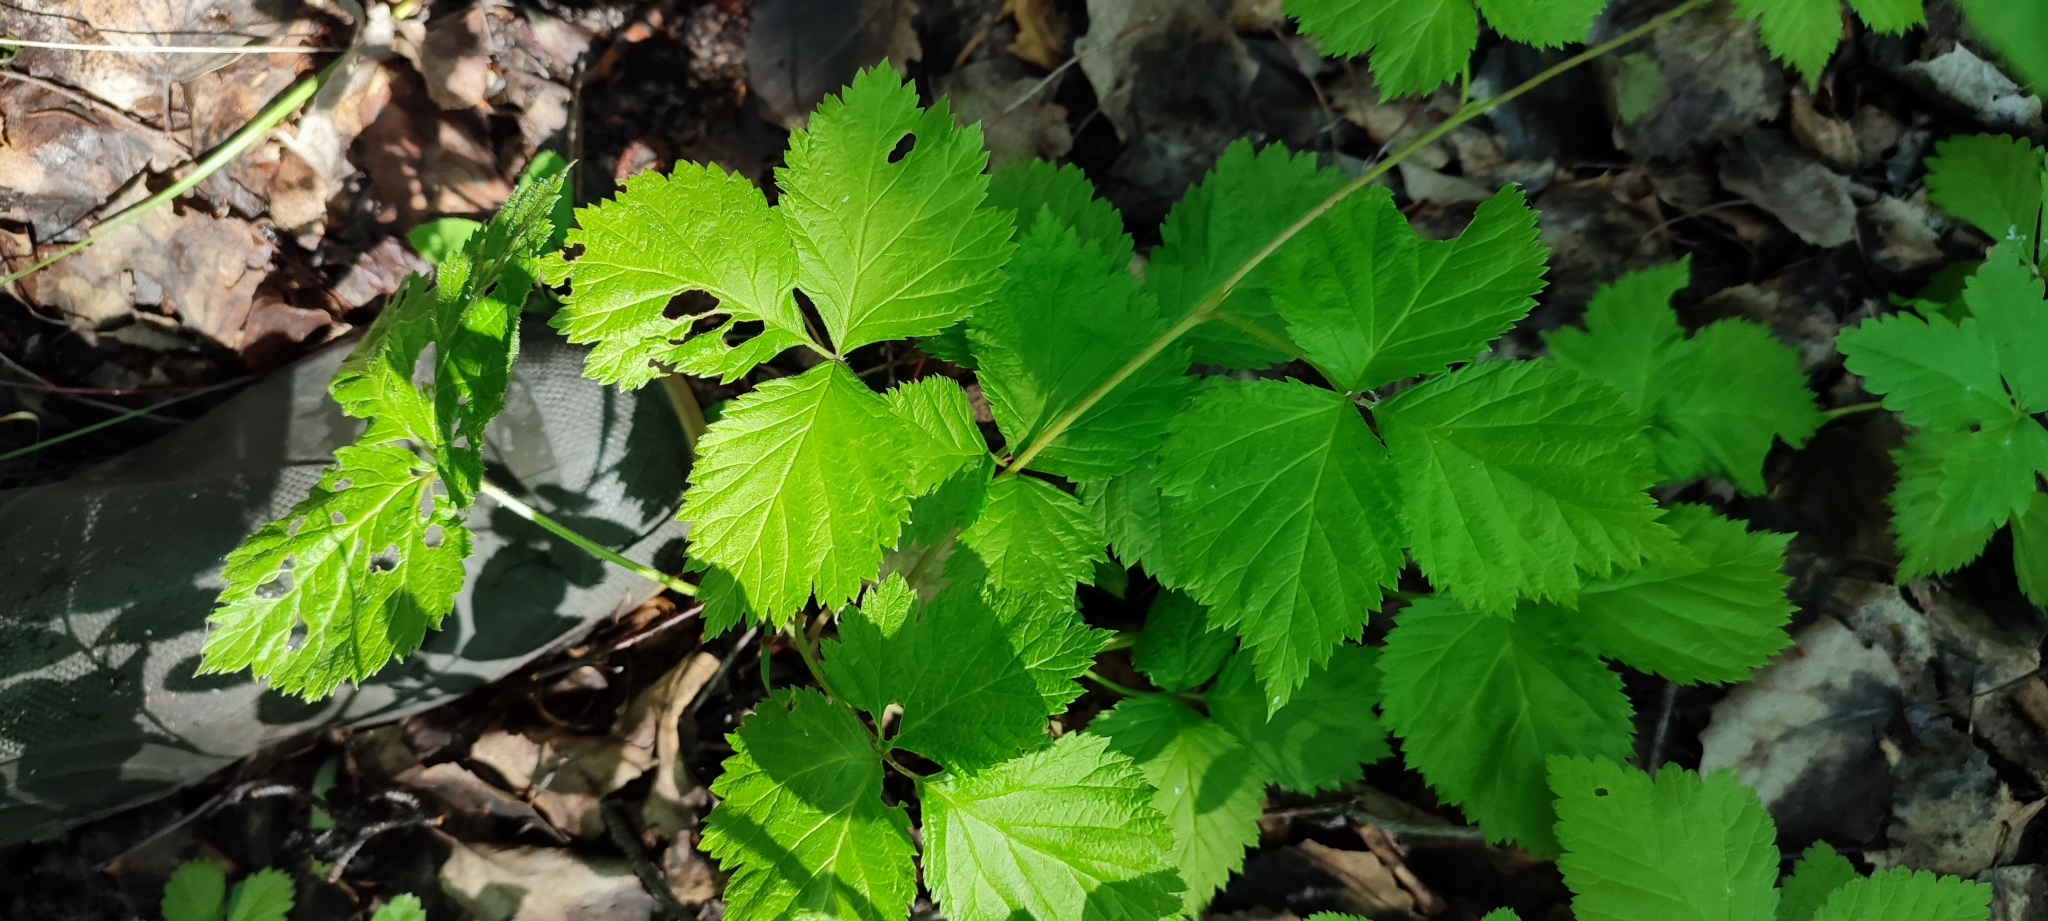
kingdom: Plantae
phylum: Tracheophyta
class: Magnoliopsida
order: Rosales
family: Rosaceae
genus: Rubus
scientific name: Rubus saxatilis
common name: Stone bramble
